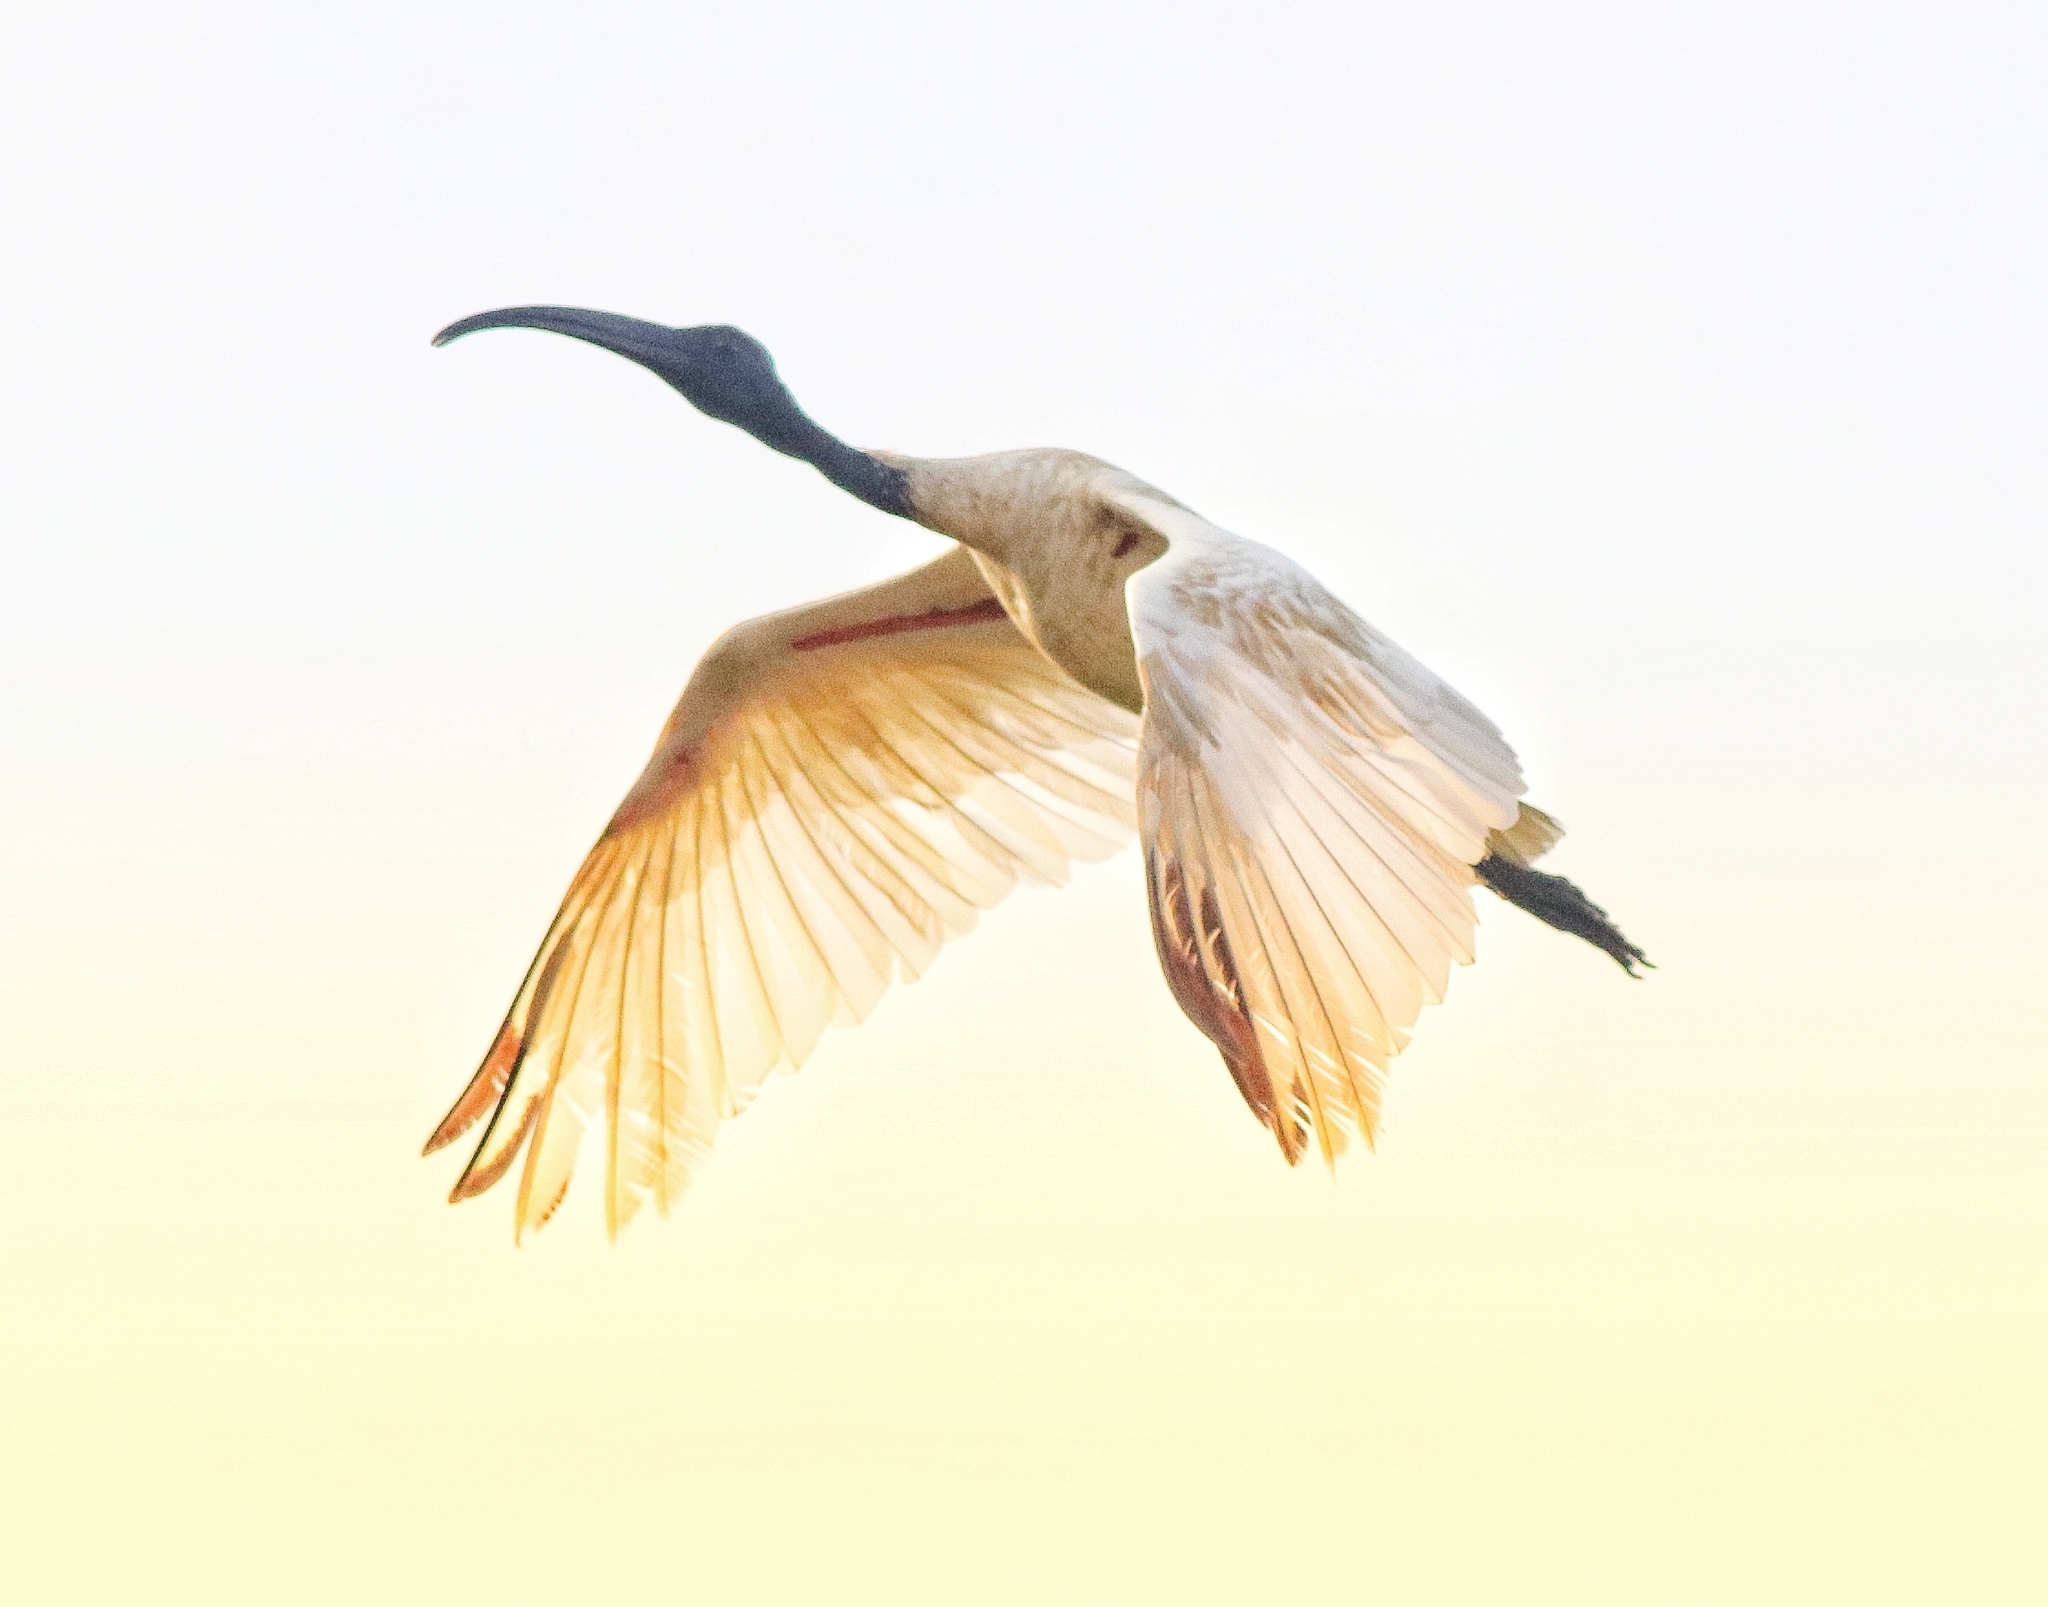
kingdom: Animalia
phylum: Chordata
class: Aves
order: Pelecaniformes
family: Threskiornithidae
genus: Threskiornis
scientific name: Threskiornis melanocephalus
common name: Black-headed ibis
